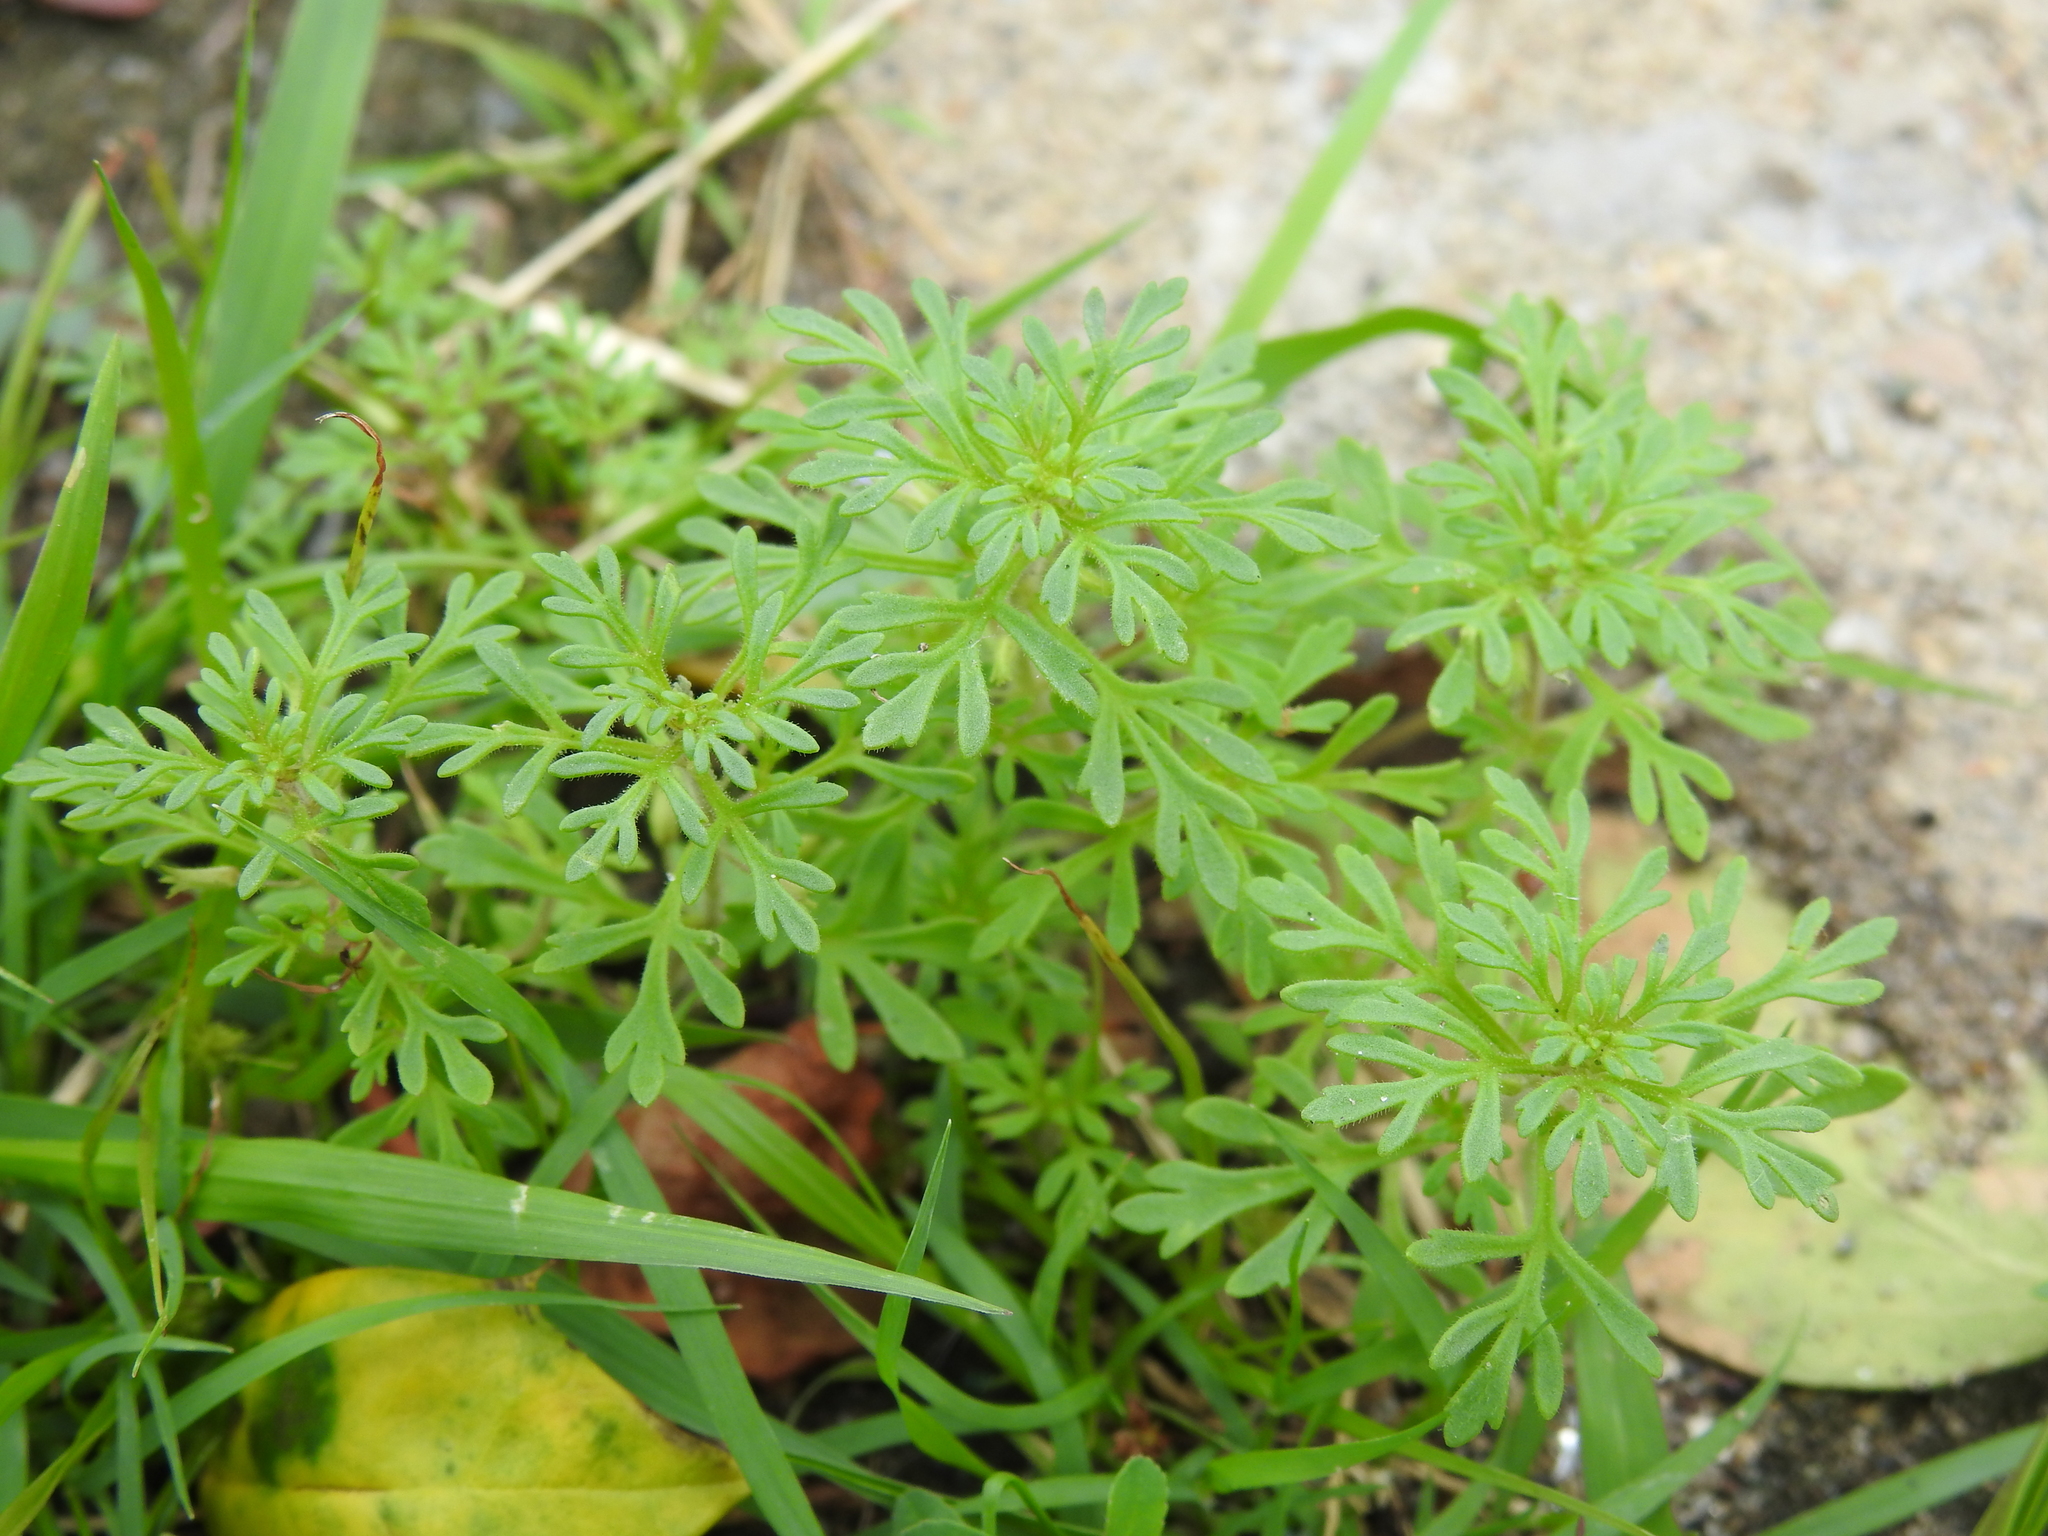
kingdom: Plantae
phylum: Tracheophyta
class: Magnoliopsida
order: Lamiales
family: Plantaginaceae
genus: Leucospora
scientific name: Leucospora multifida
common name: Narrow-leaf paleseed
